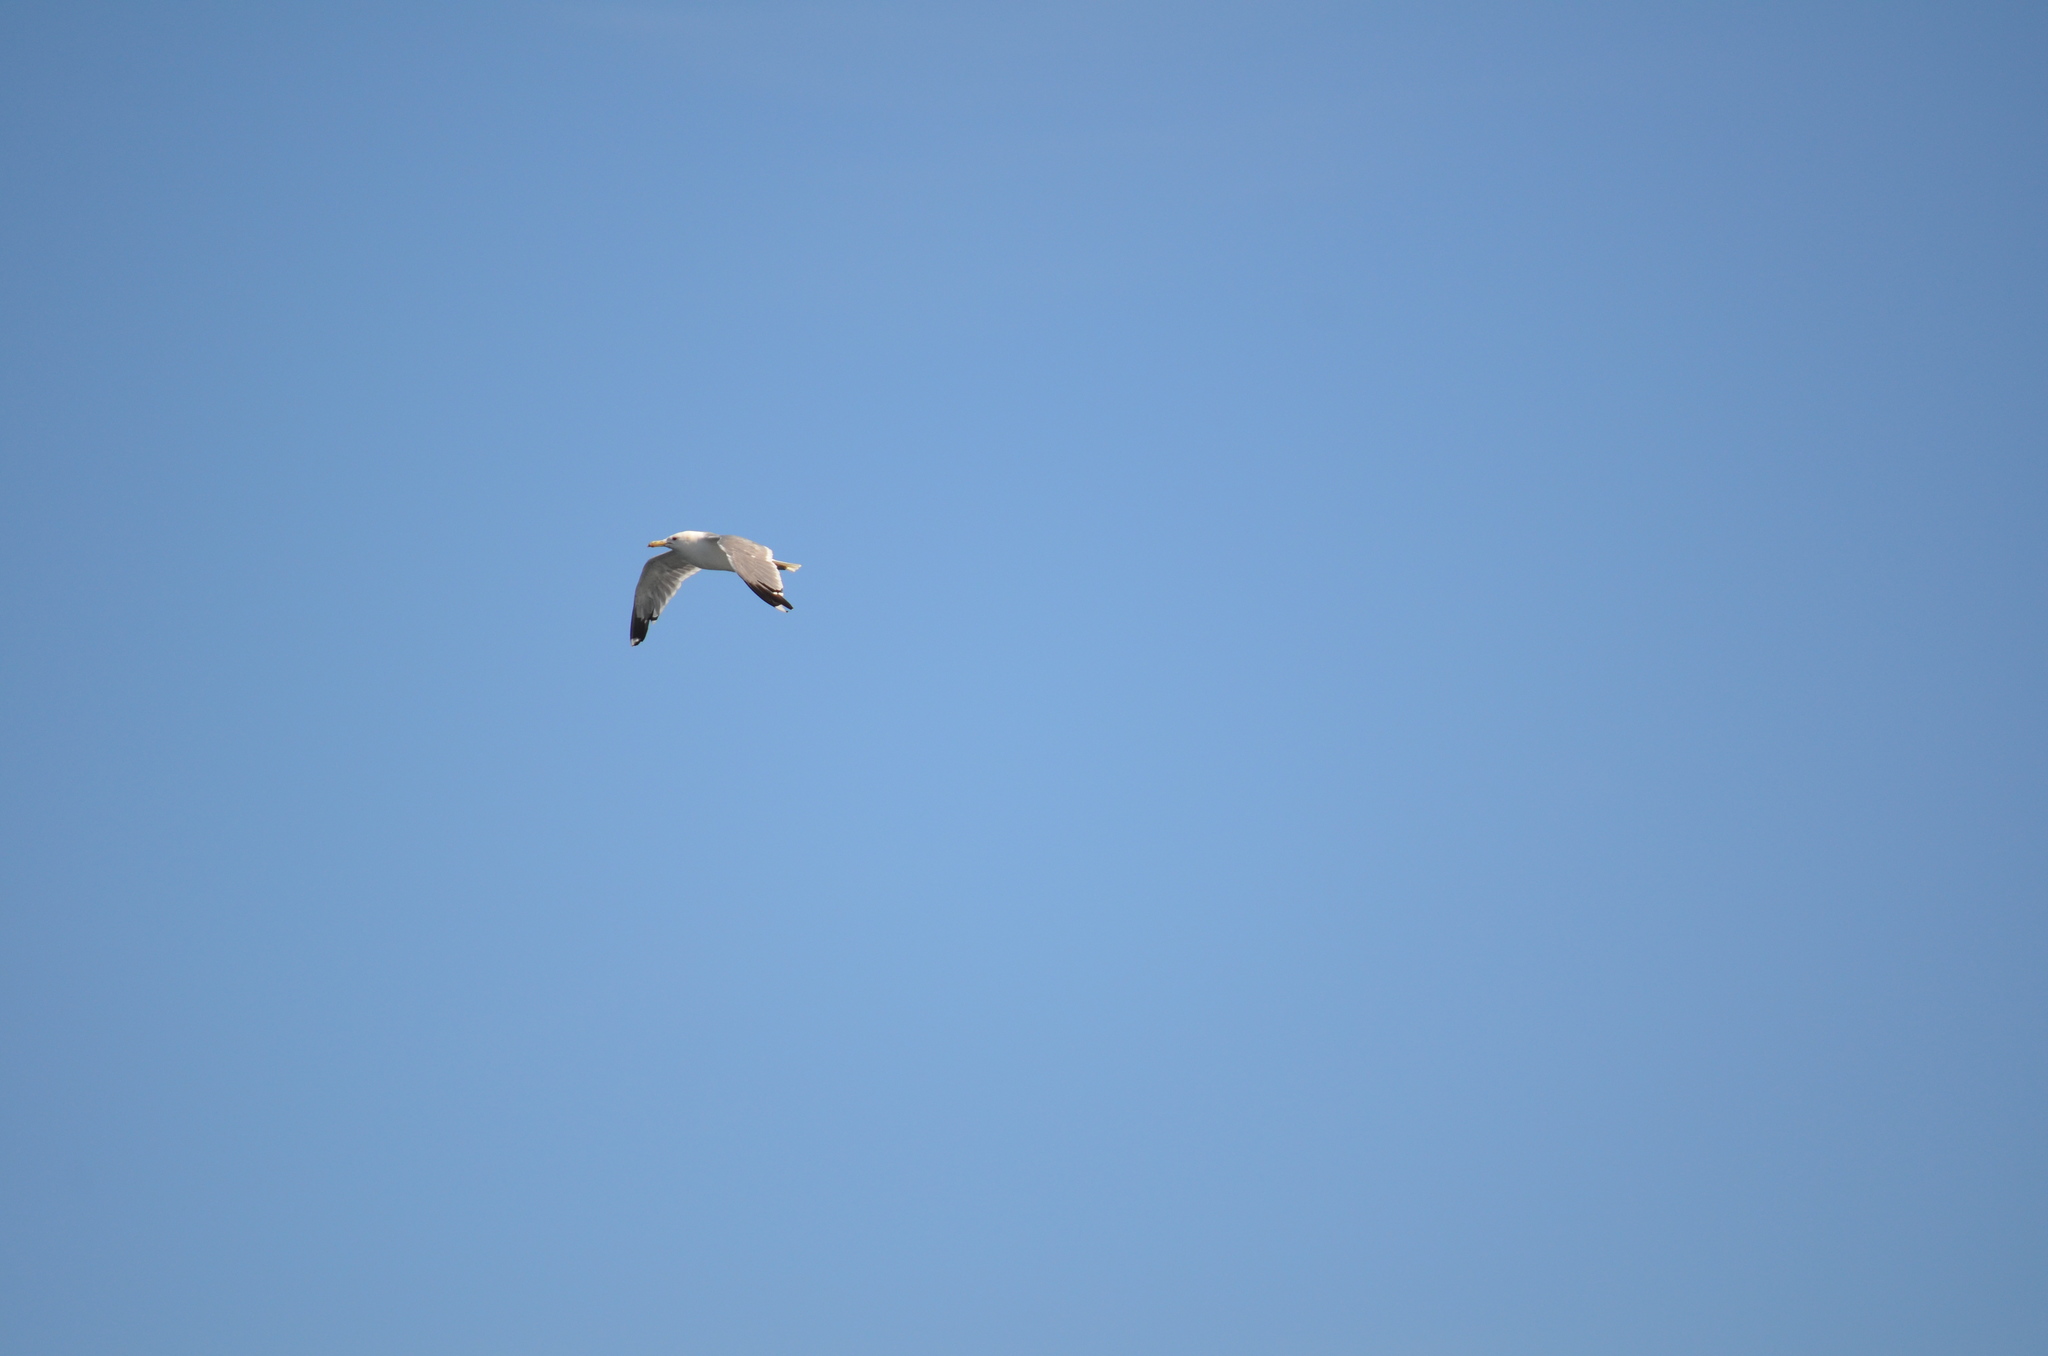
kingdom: Animalia
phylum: Chordata
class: Aves
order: Charadriiformes
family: Laridae
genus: Larus
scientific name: Larus californicus
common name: California gull
